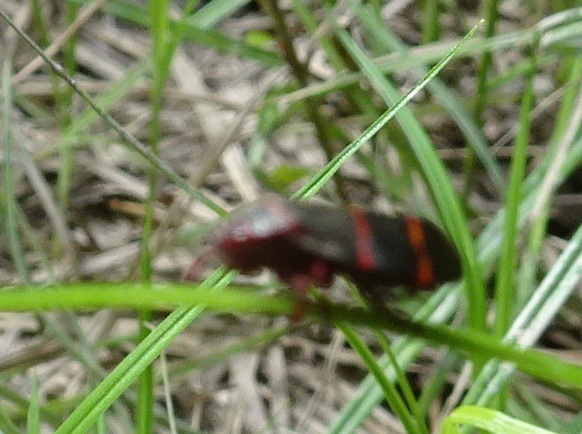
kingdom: Animalia
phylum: Arthropoda
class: Insecta
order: Hemiptera
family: Cercopidae
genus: Prosapia
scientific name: Prosapia bicincta
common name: Twolined spittlebug
